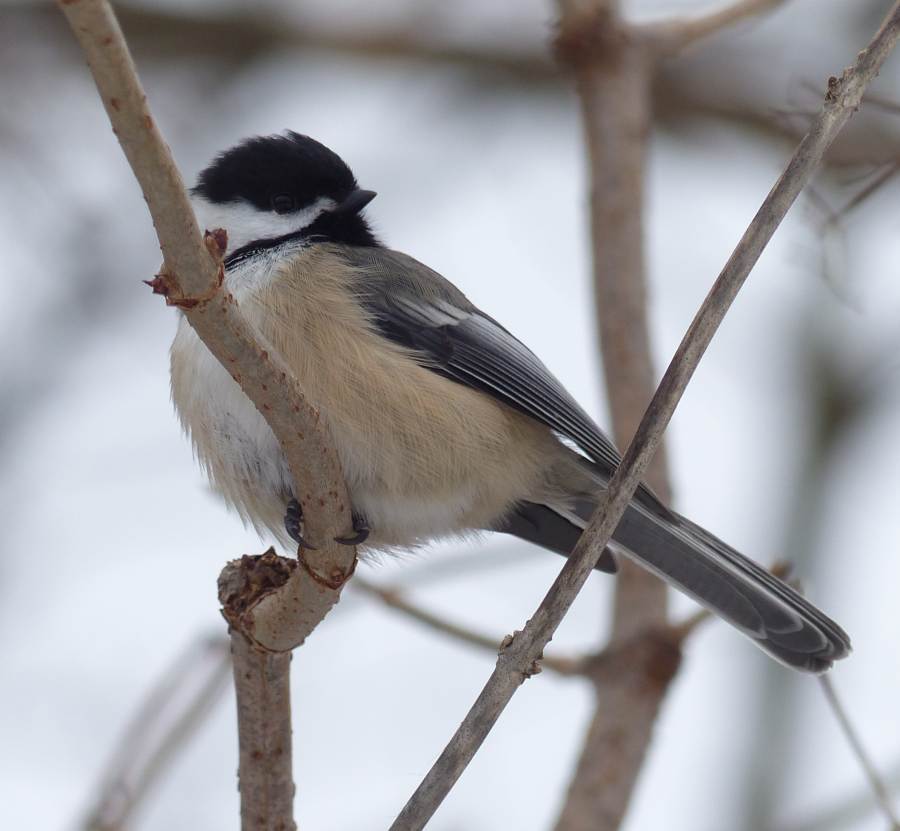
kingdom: Animalia
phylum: Chordata
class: Aves
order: Passeriformes
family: Paridae
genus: Poecile
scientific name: Poecile atricapillus
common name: Black-capped chickadee
